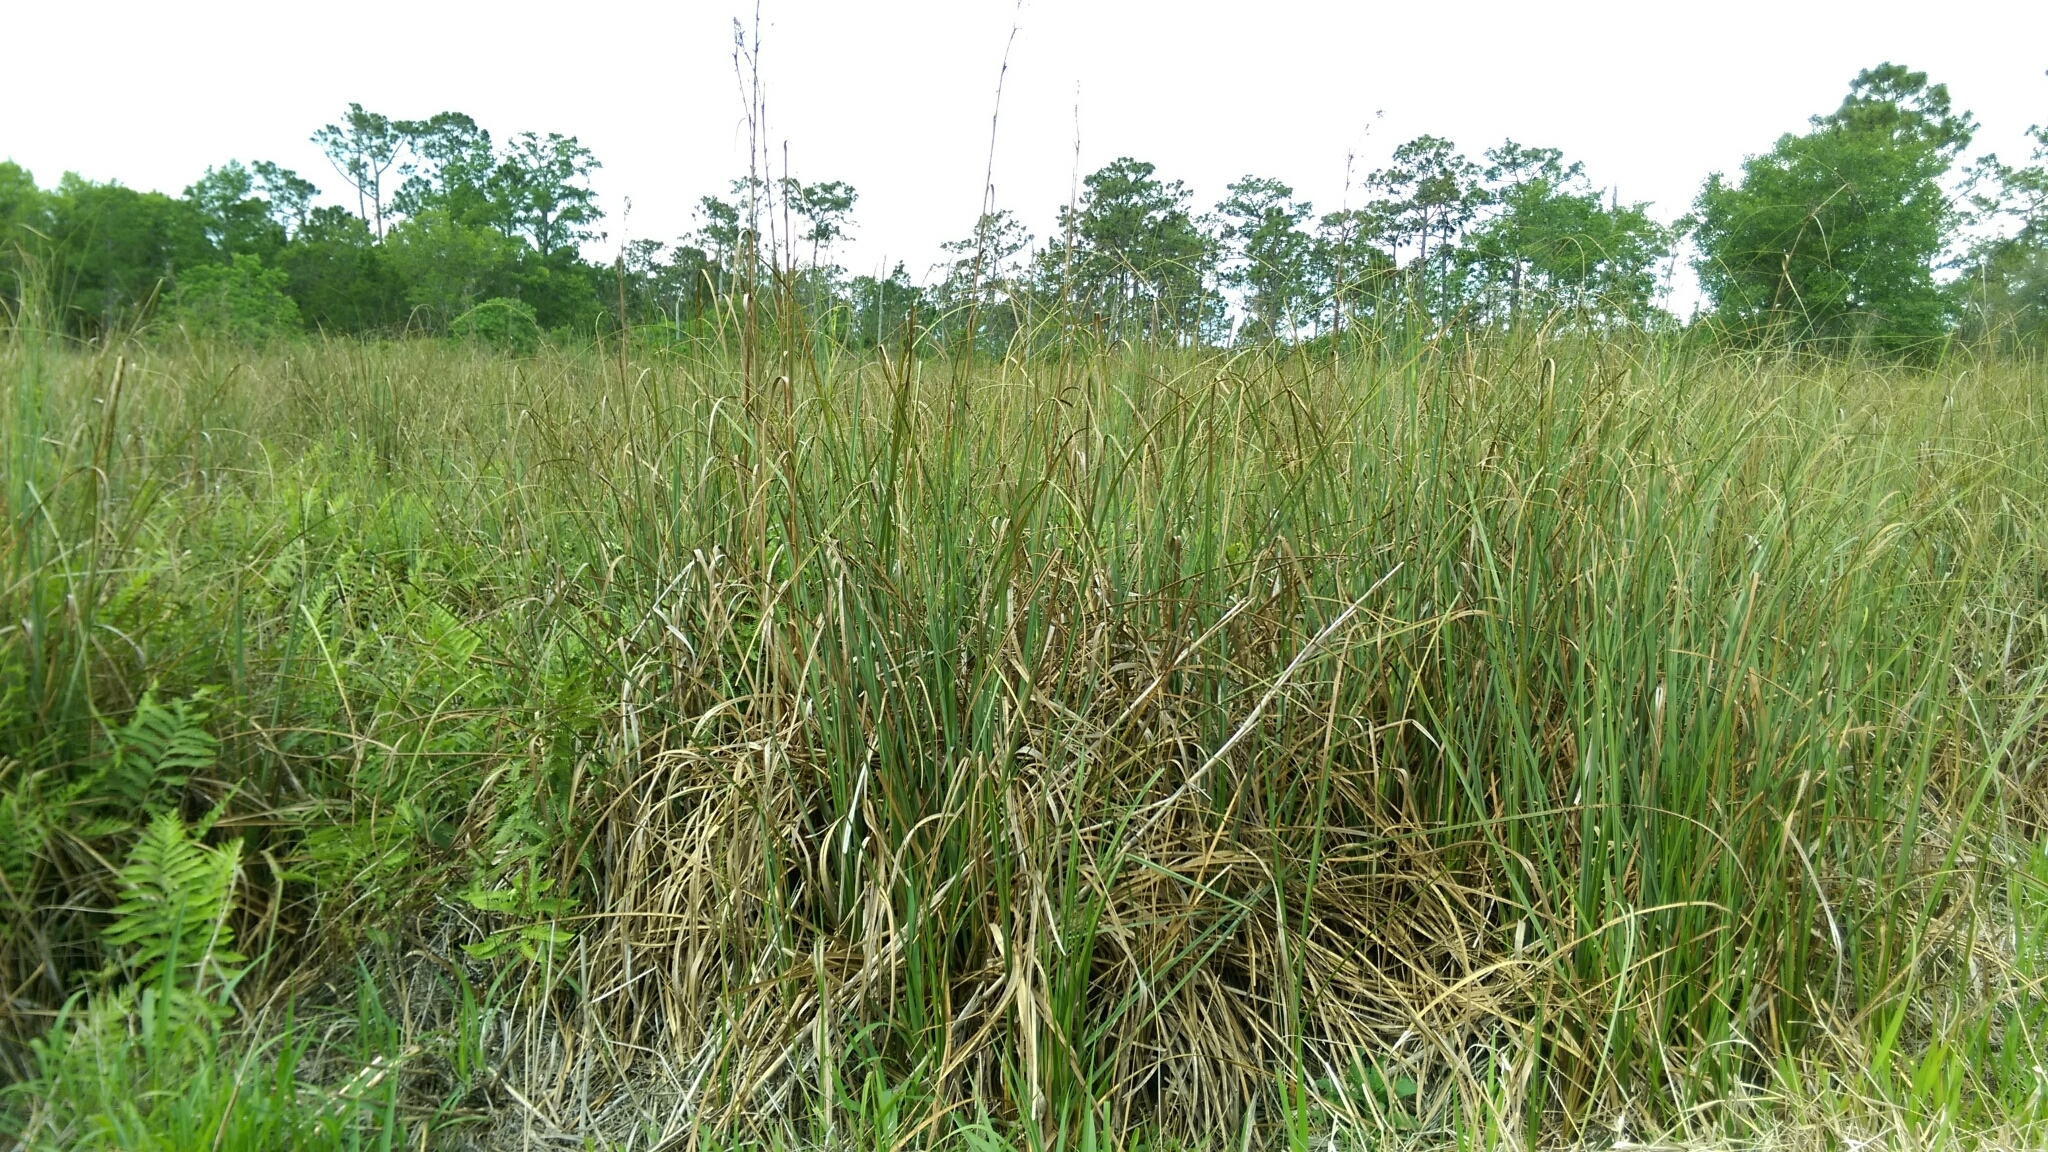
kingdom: Plantae
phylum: Tracheophyta
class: Liliopsida
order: Poales
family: Cyperaceae
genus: Cladium
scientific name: Cladium mariscus
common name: Great fen-sedge
